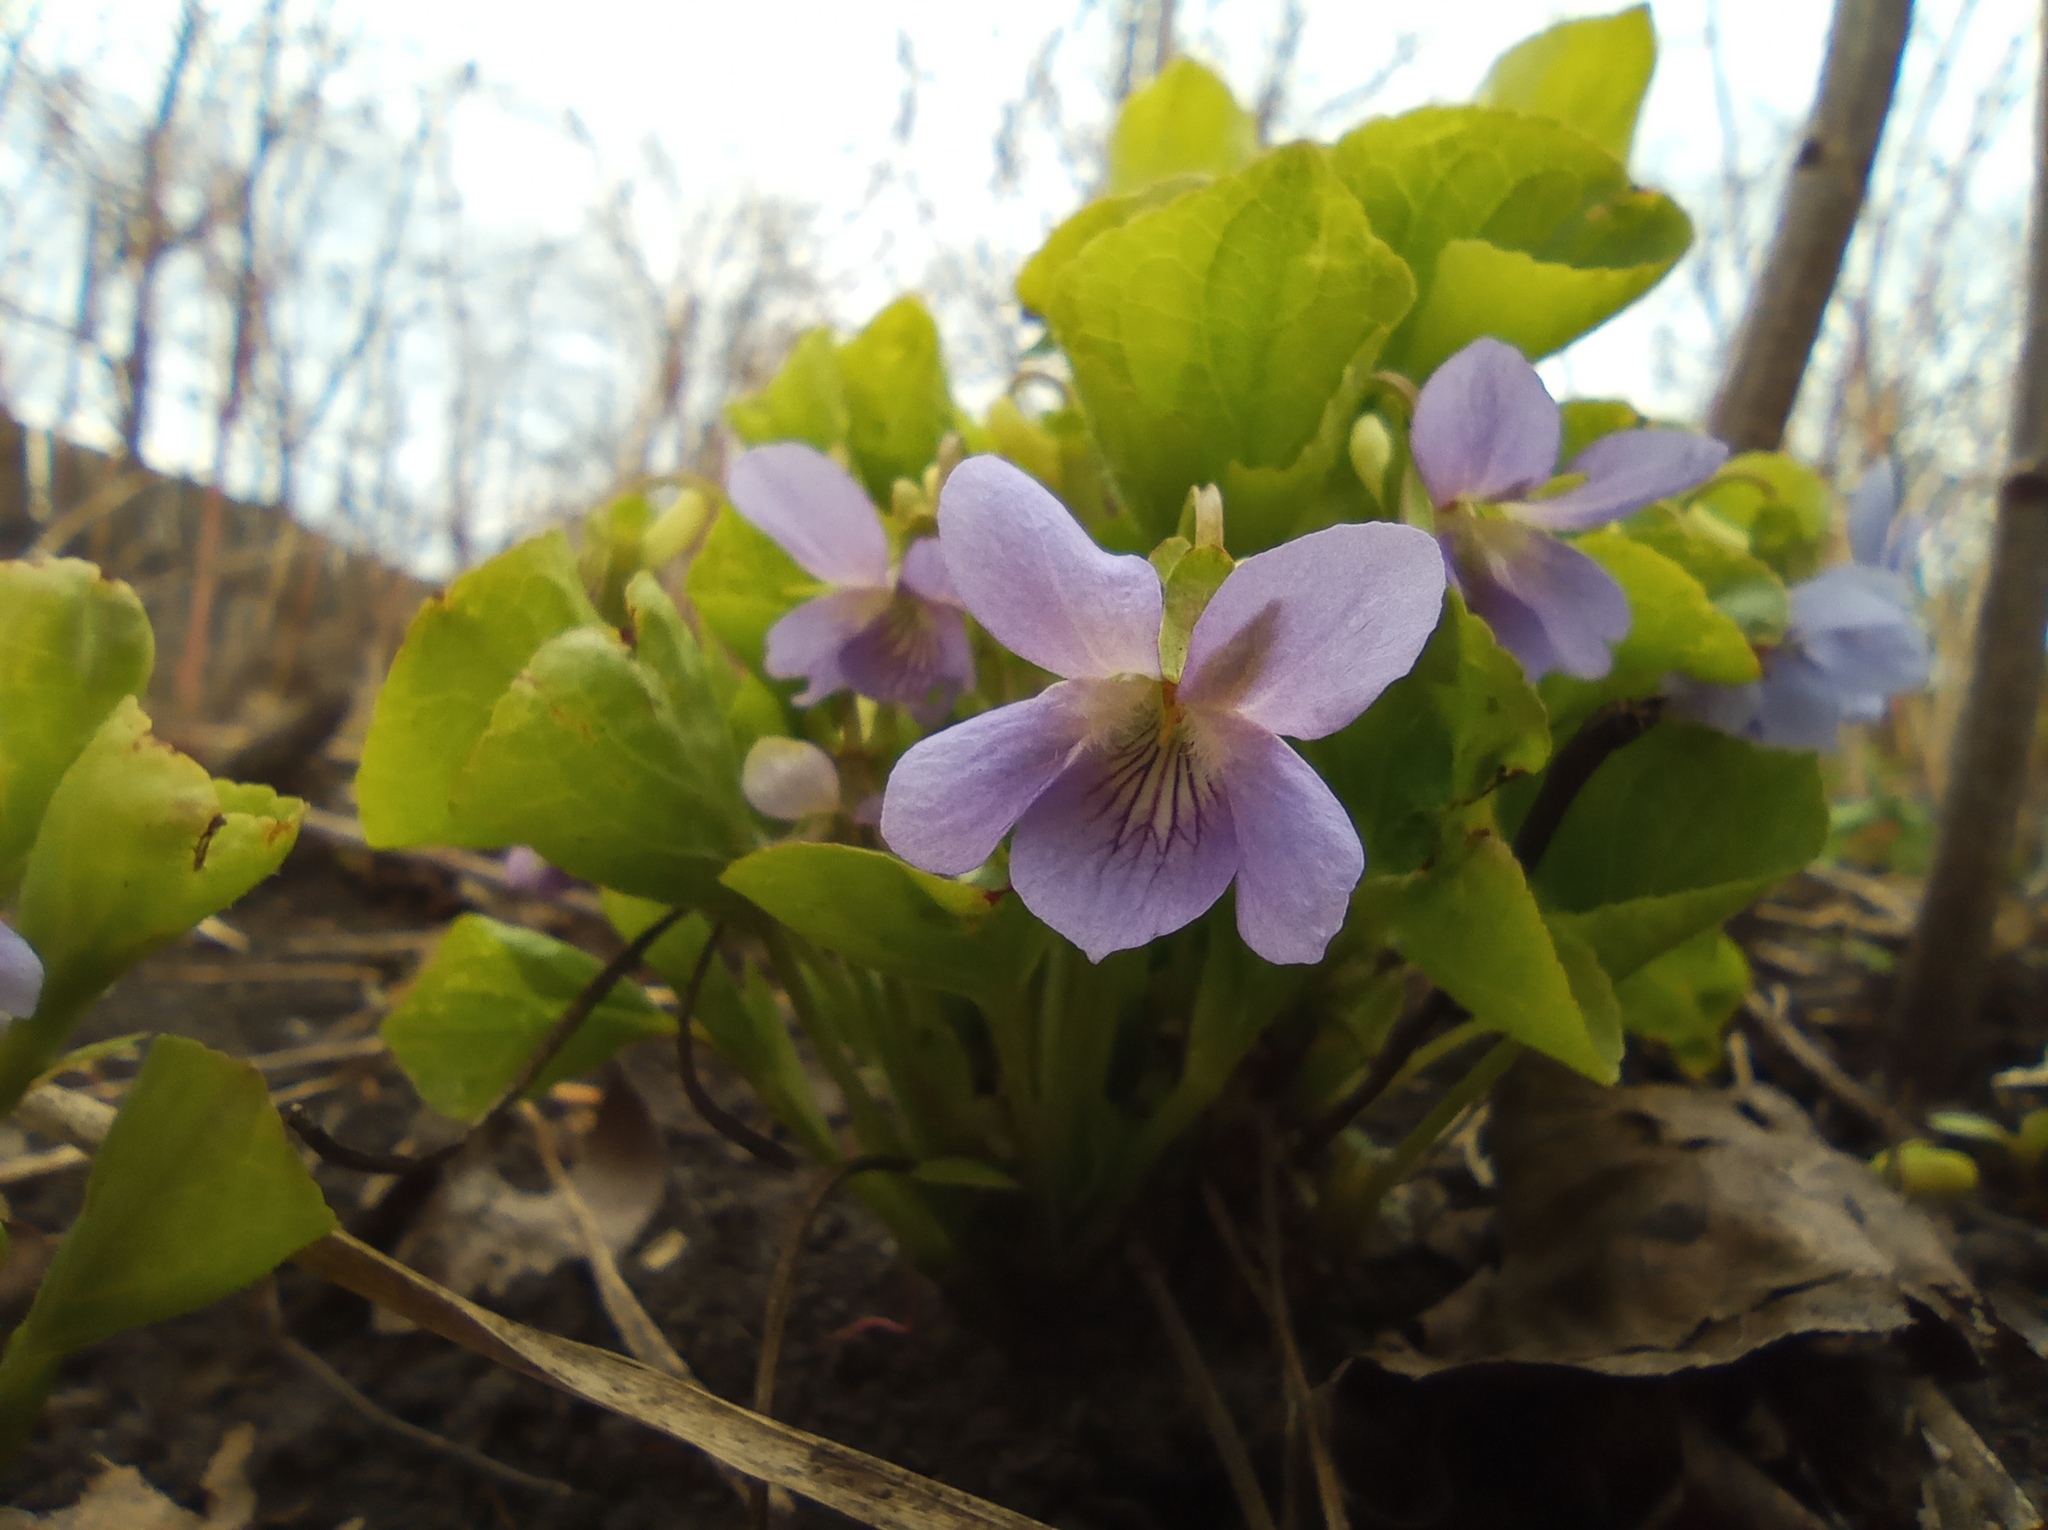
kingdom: Plantae
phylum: Tracheophyta
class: Magnoliopsida
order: Malpighiales
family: Violaceae
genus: Viola
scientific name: Viola mirabilis
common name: Wonder violet
